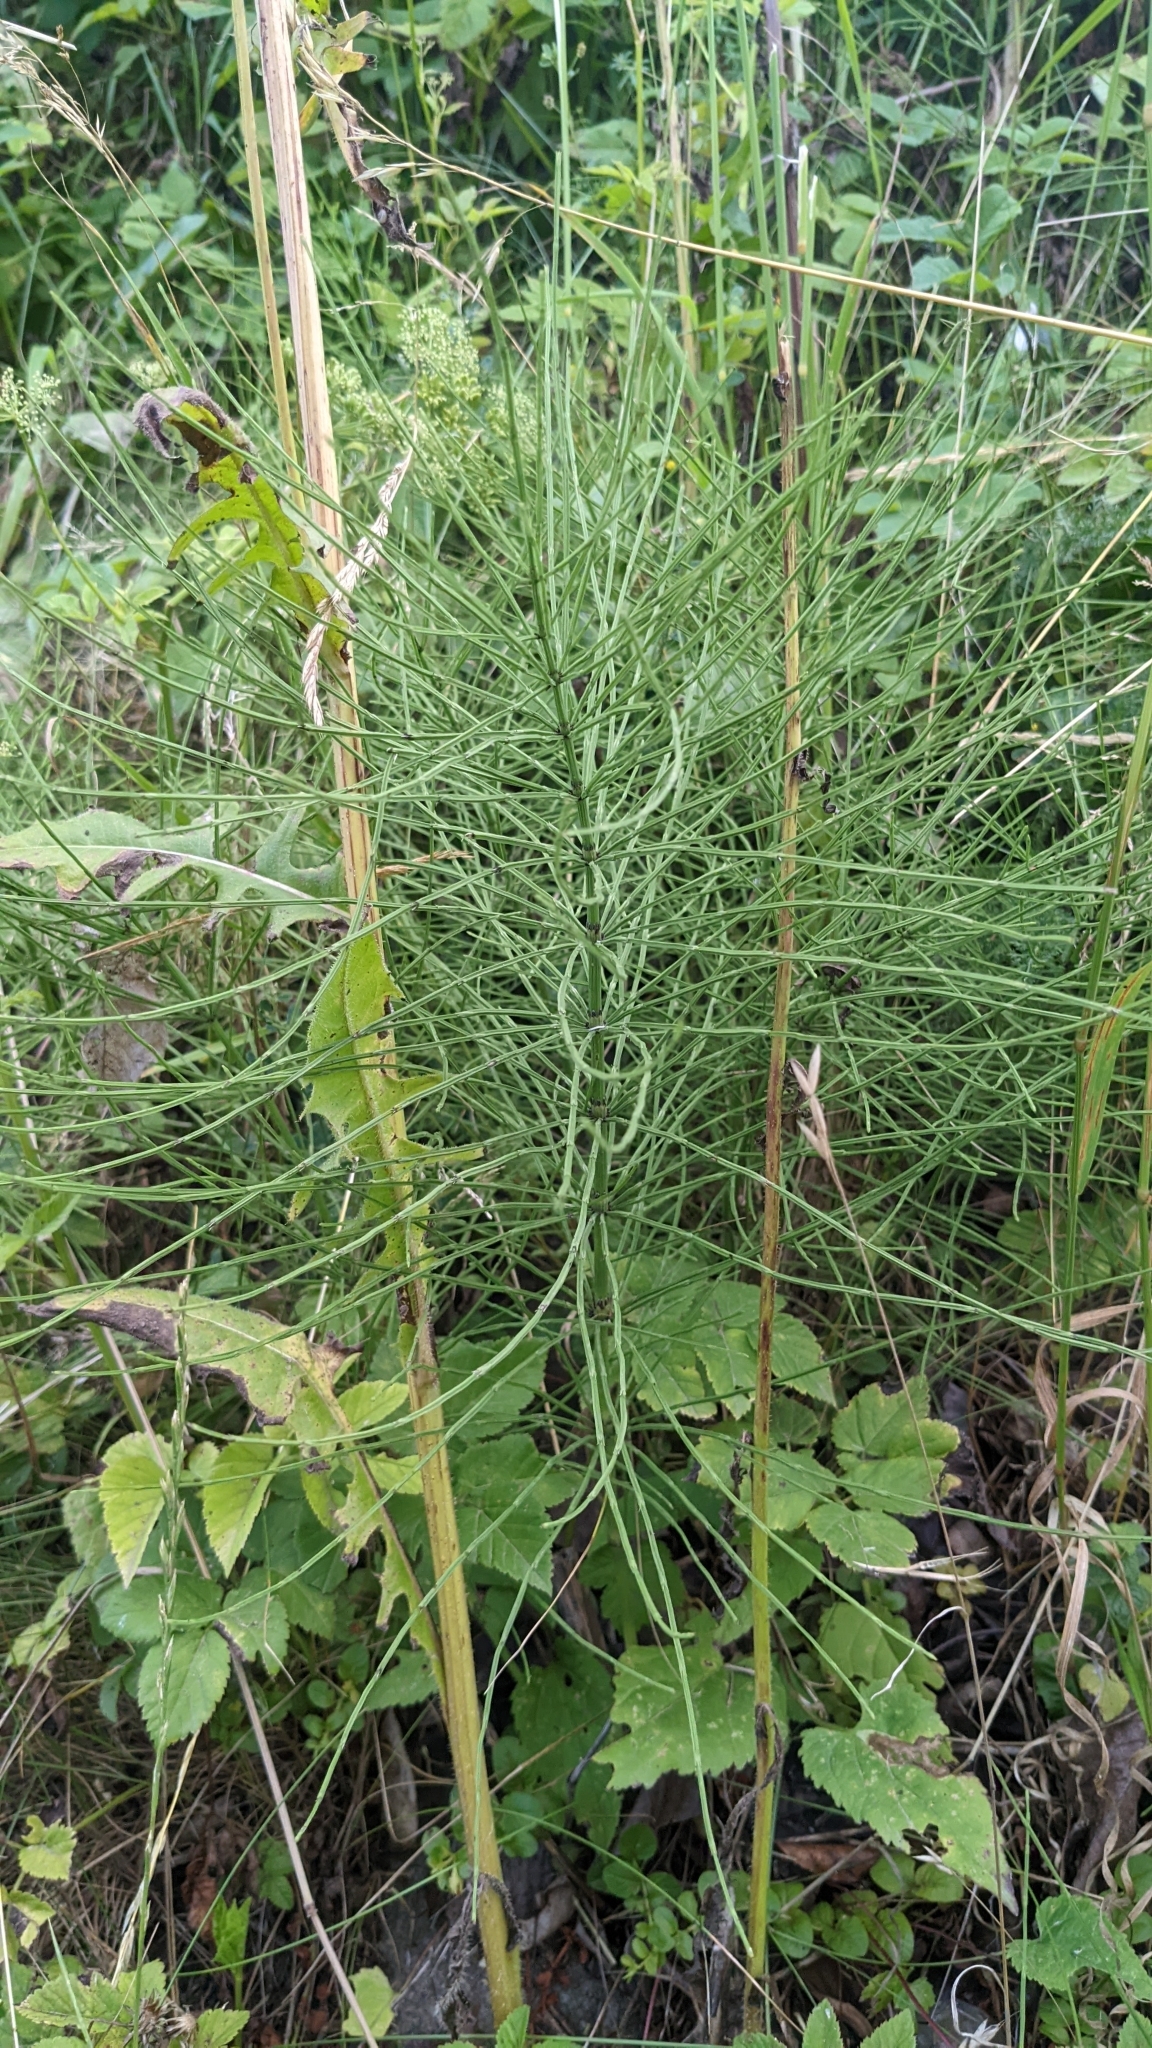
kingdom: Plantae
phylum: Tracheophyta
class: Polypodiopsida
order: Equisetales
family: Equisetaceae
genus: Equisetum
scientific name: Equisetum arvense
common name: Field horsetail
